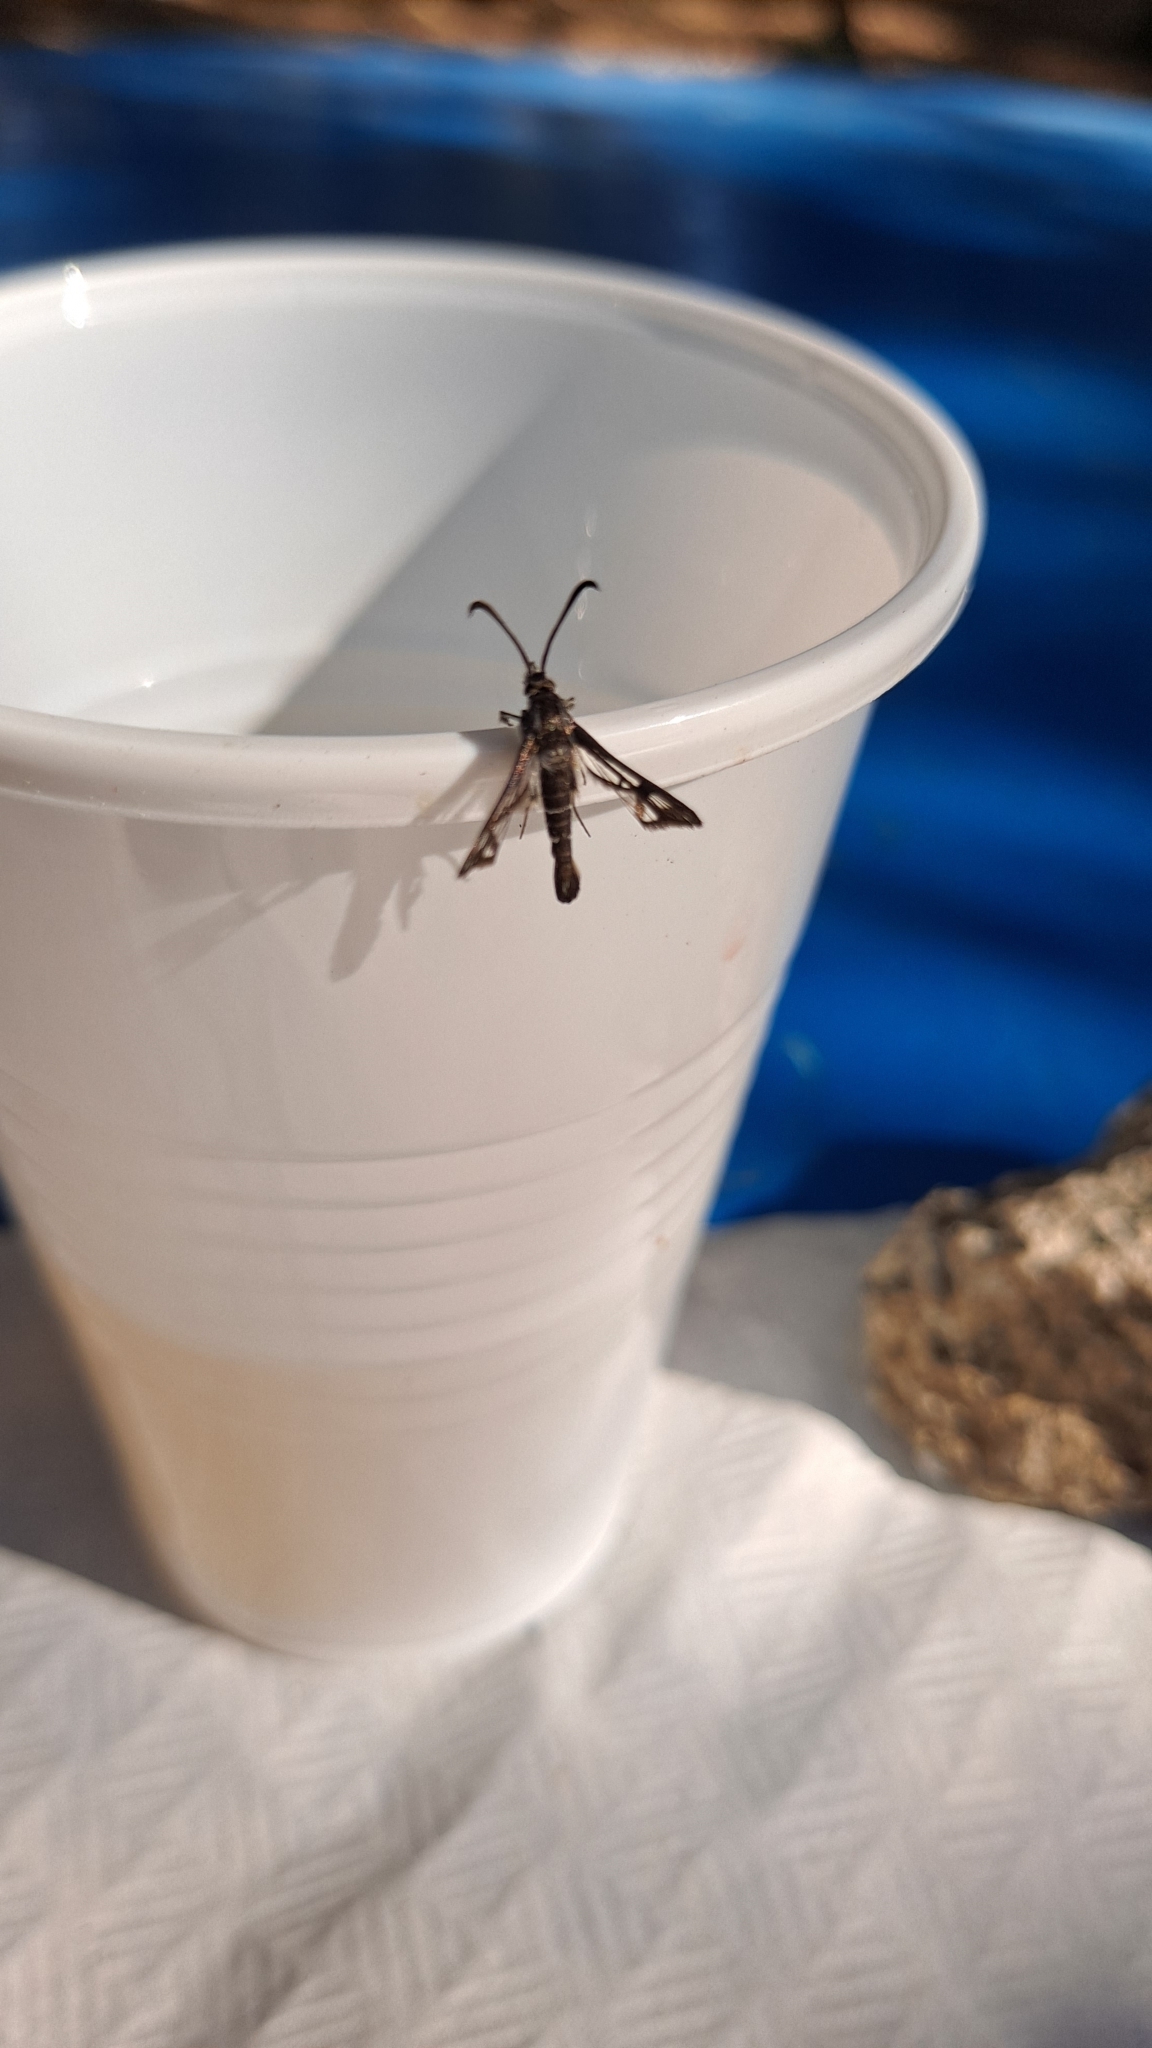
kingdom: Animalia
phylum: Arthropoda
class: Insecta
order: Lepidoptera
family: Sesiidae
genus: Pyropteron
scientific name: Pyropteron affinis
